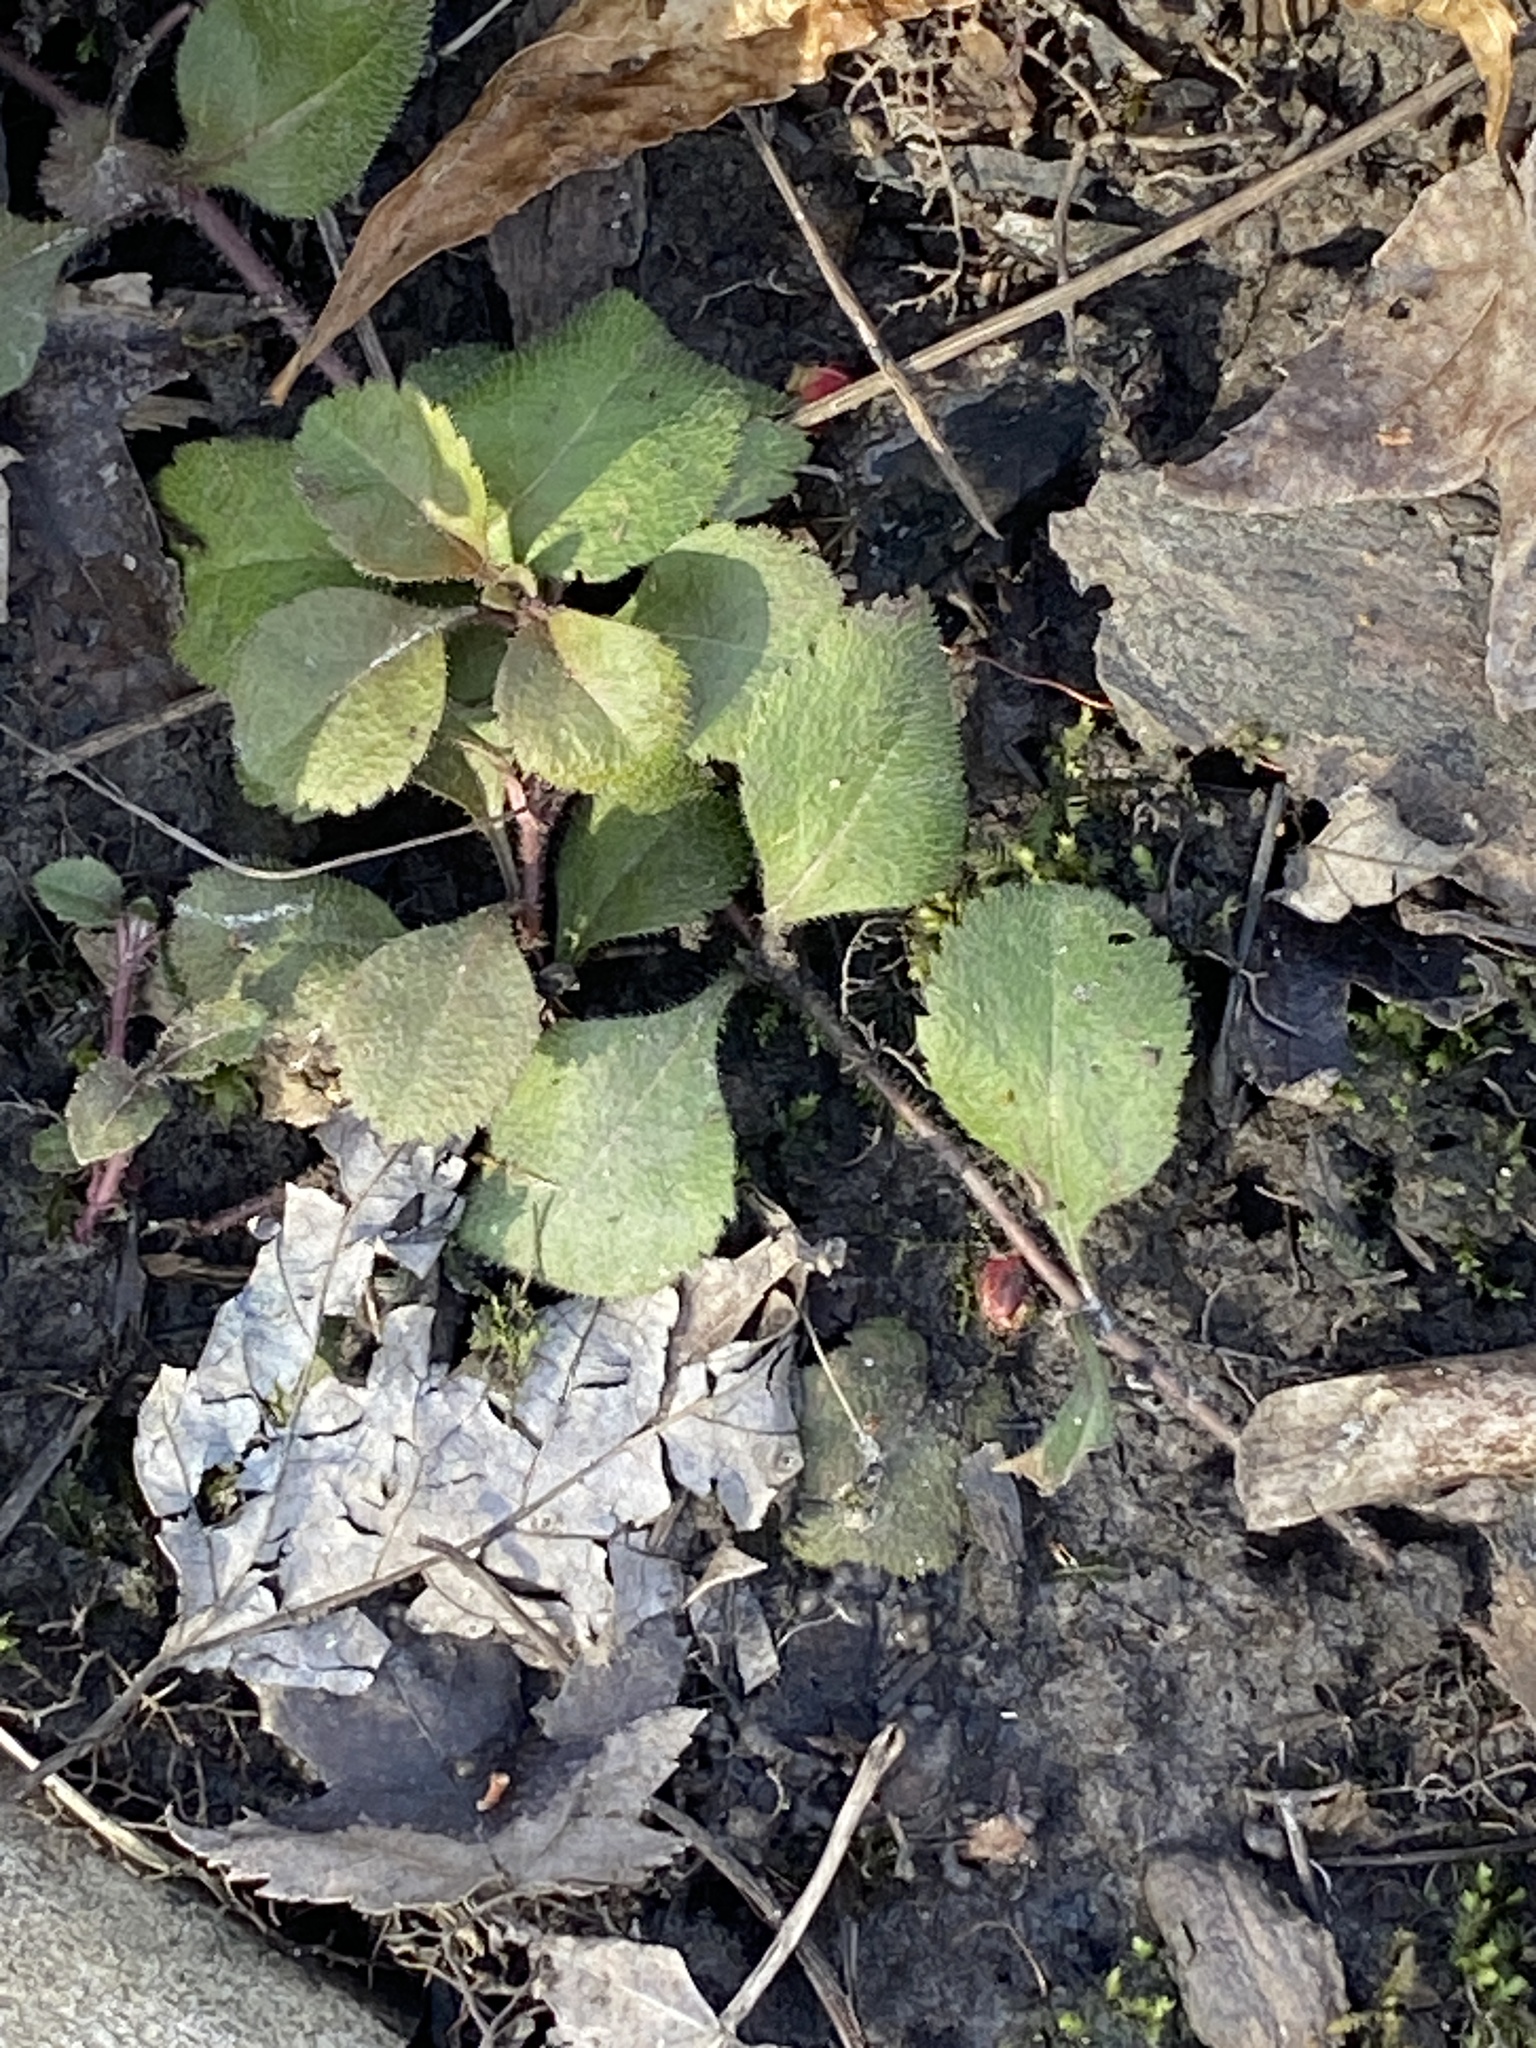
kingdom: Plantae
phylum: Tracheophyta
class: Magnoliopsida
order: Lamiales
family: Plantaginaceae
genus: Veronica
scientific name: Veronica officinalis
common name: Common speedwell
